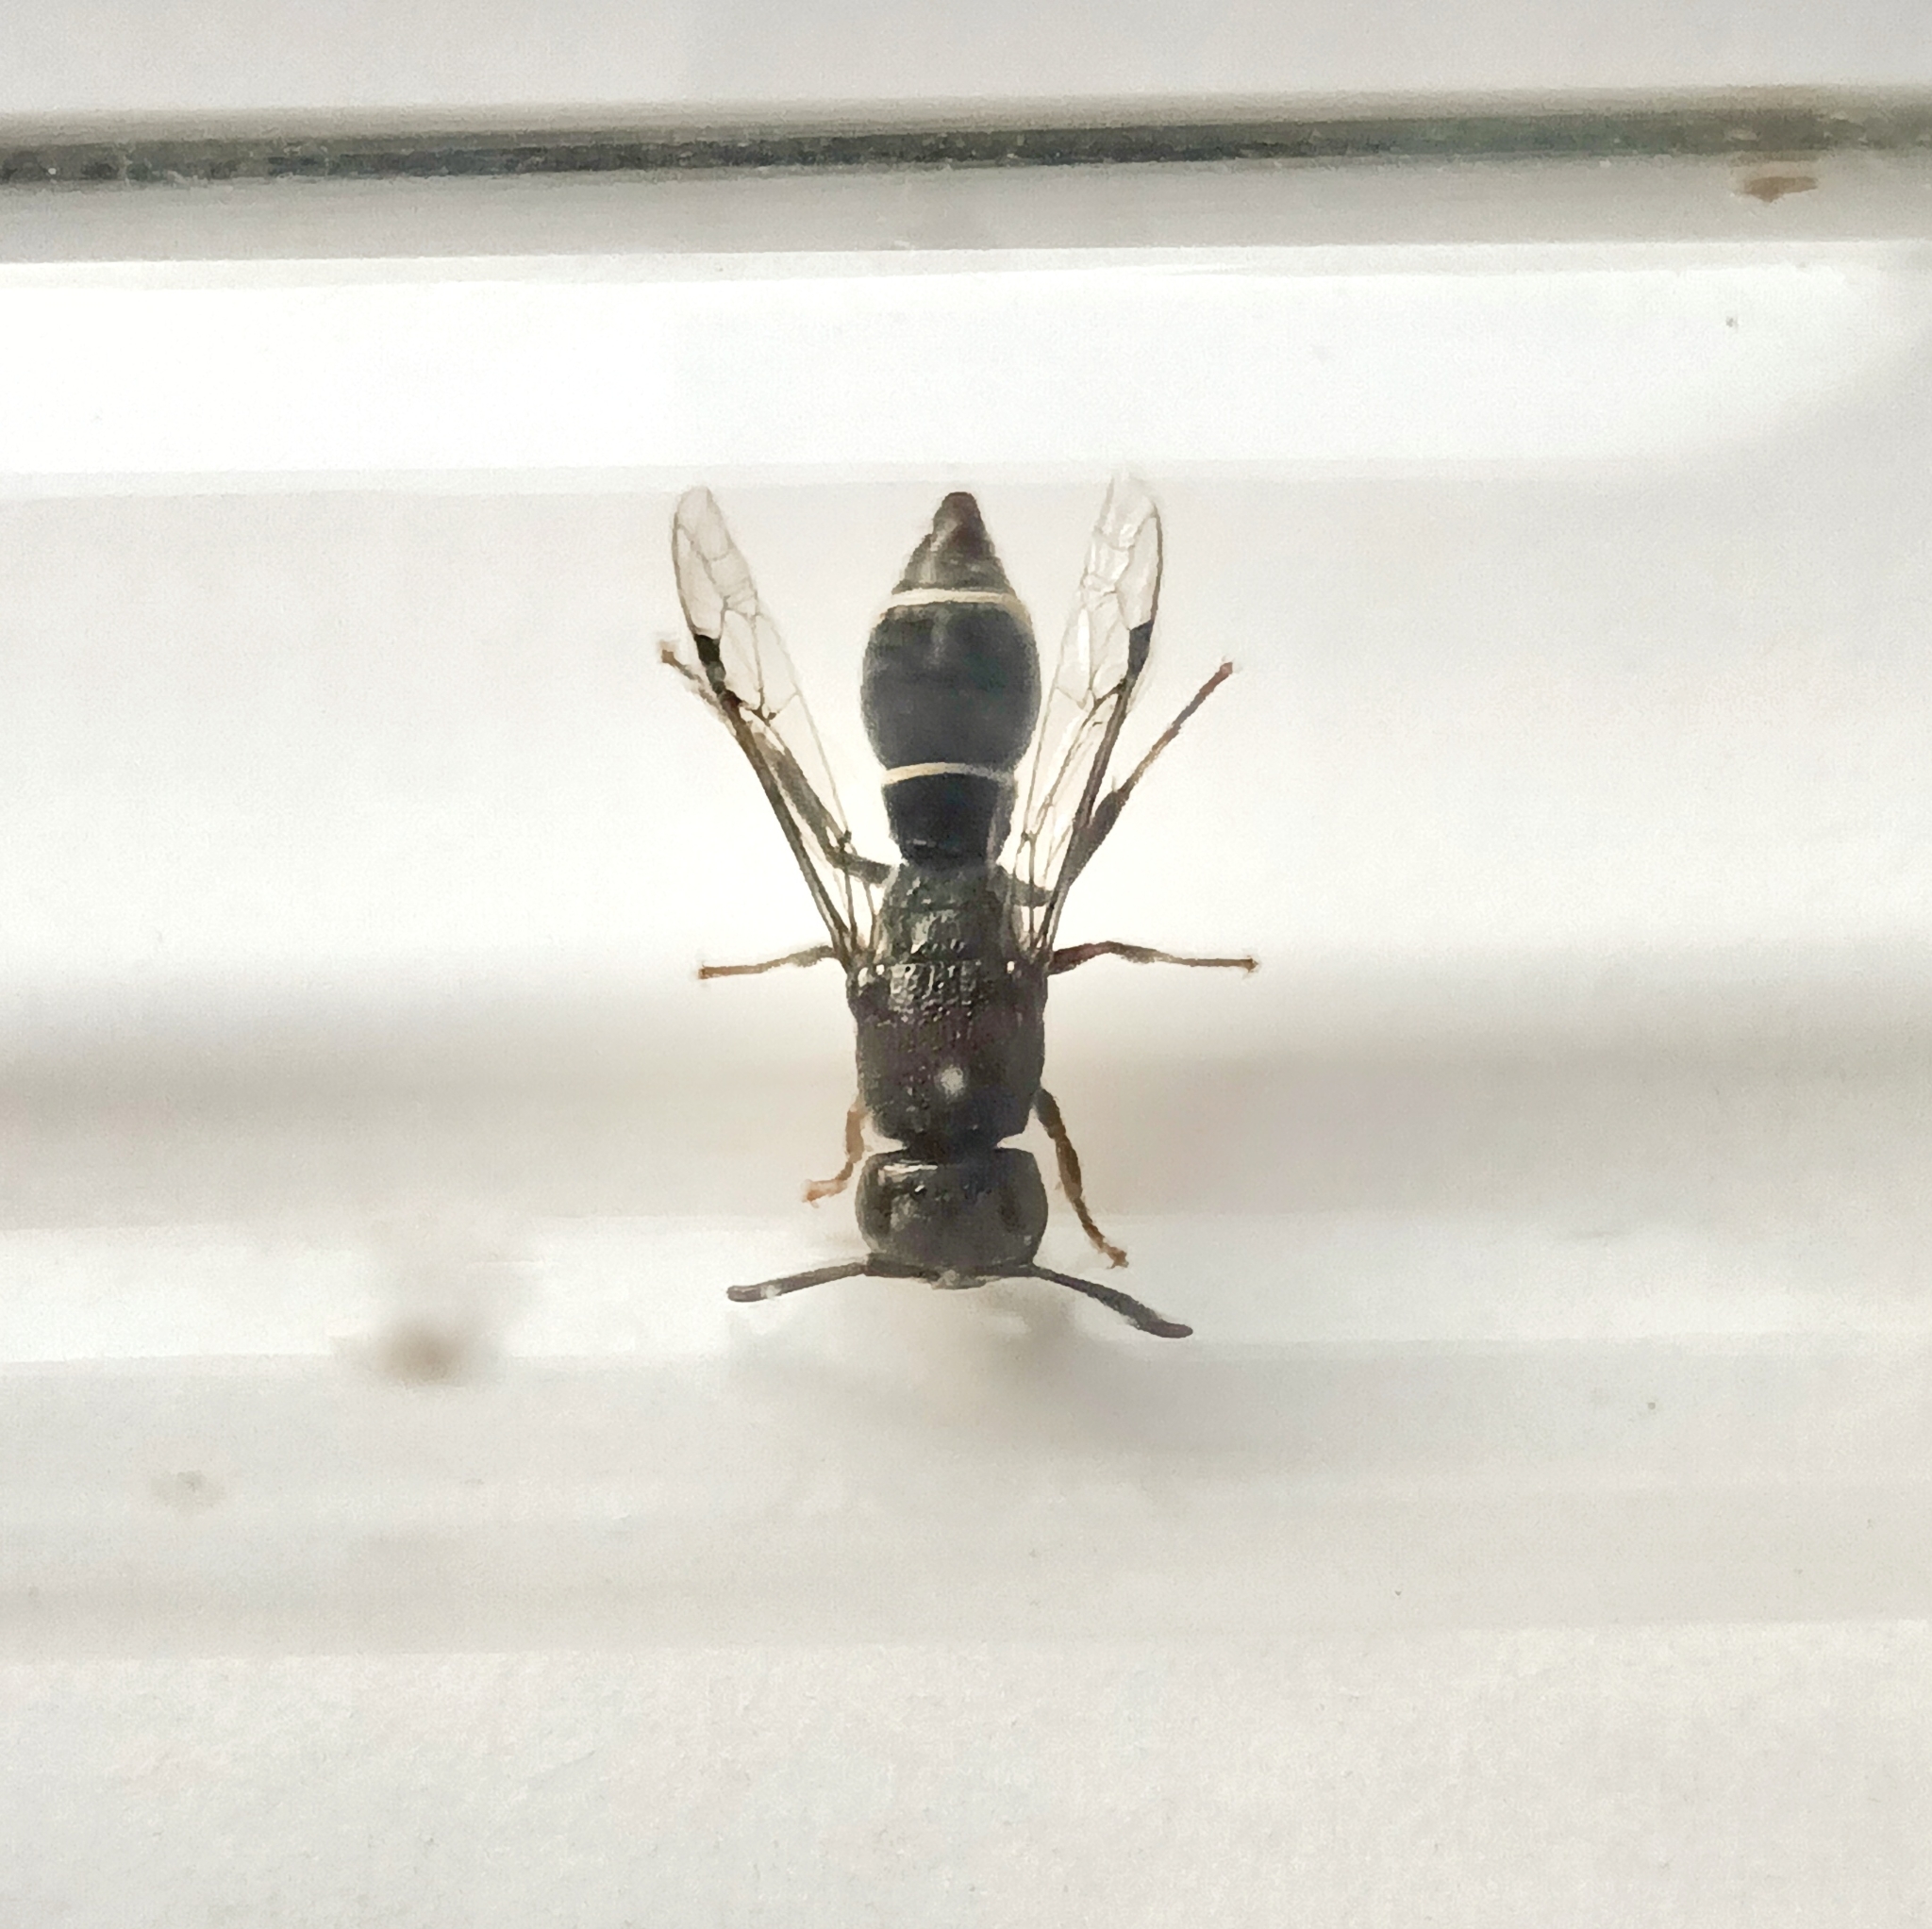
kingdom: Animalia
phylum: Arthropoda
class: Insecta
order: Hymenoptera
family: Eumenidae
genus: Subancistrocerus
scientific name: Subancistrocerus sichelii
